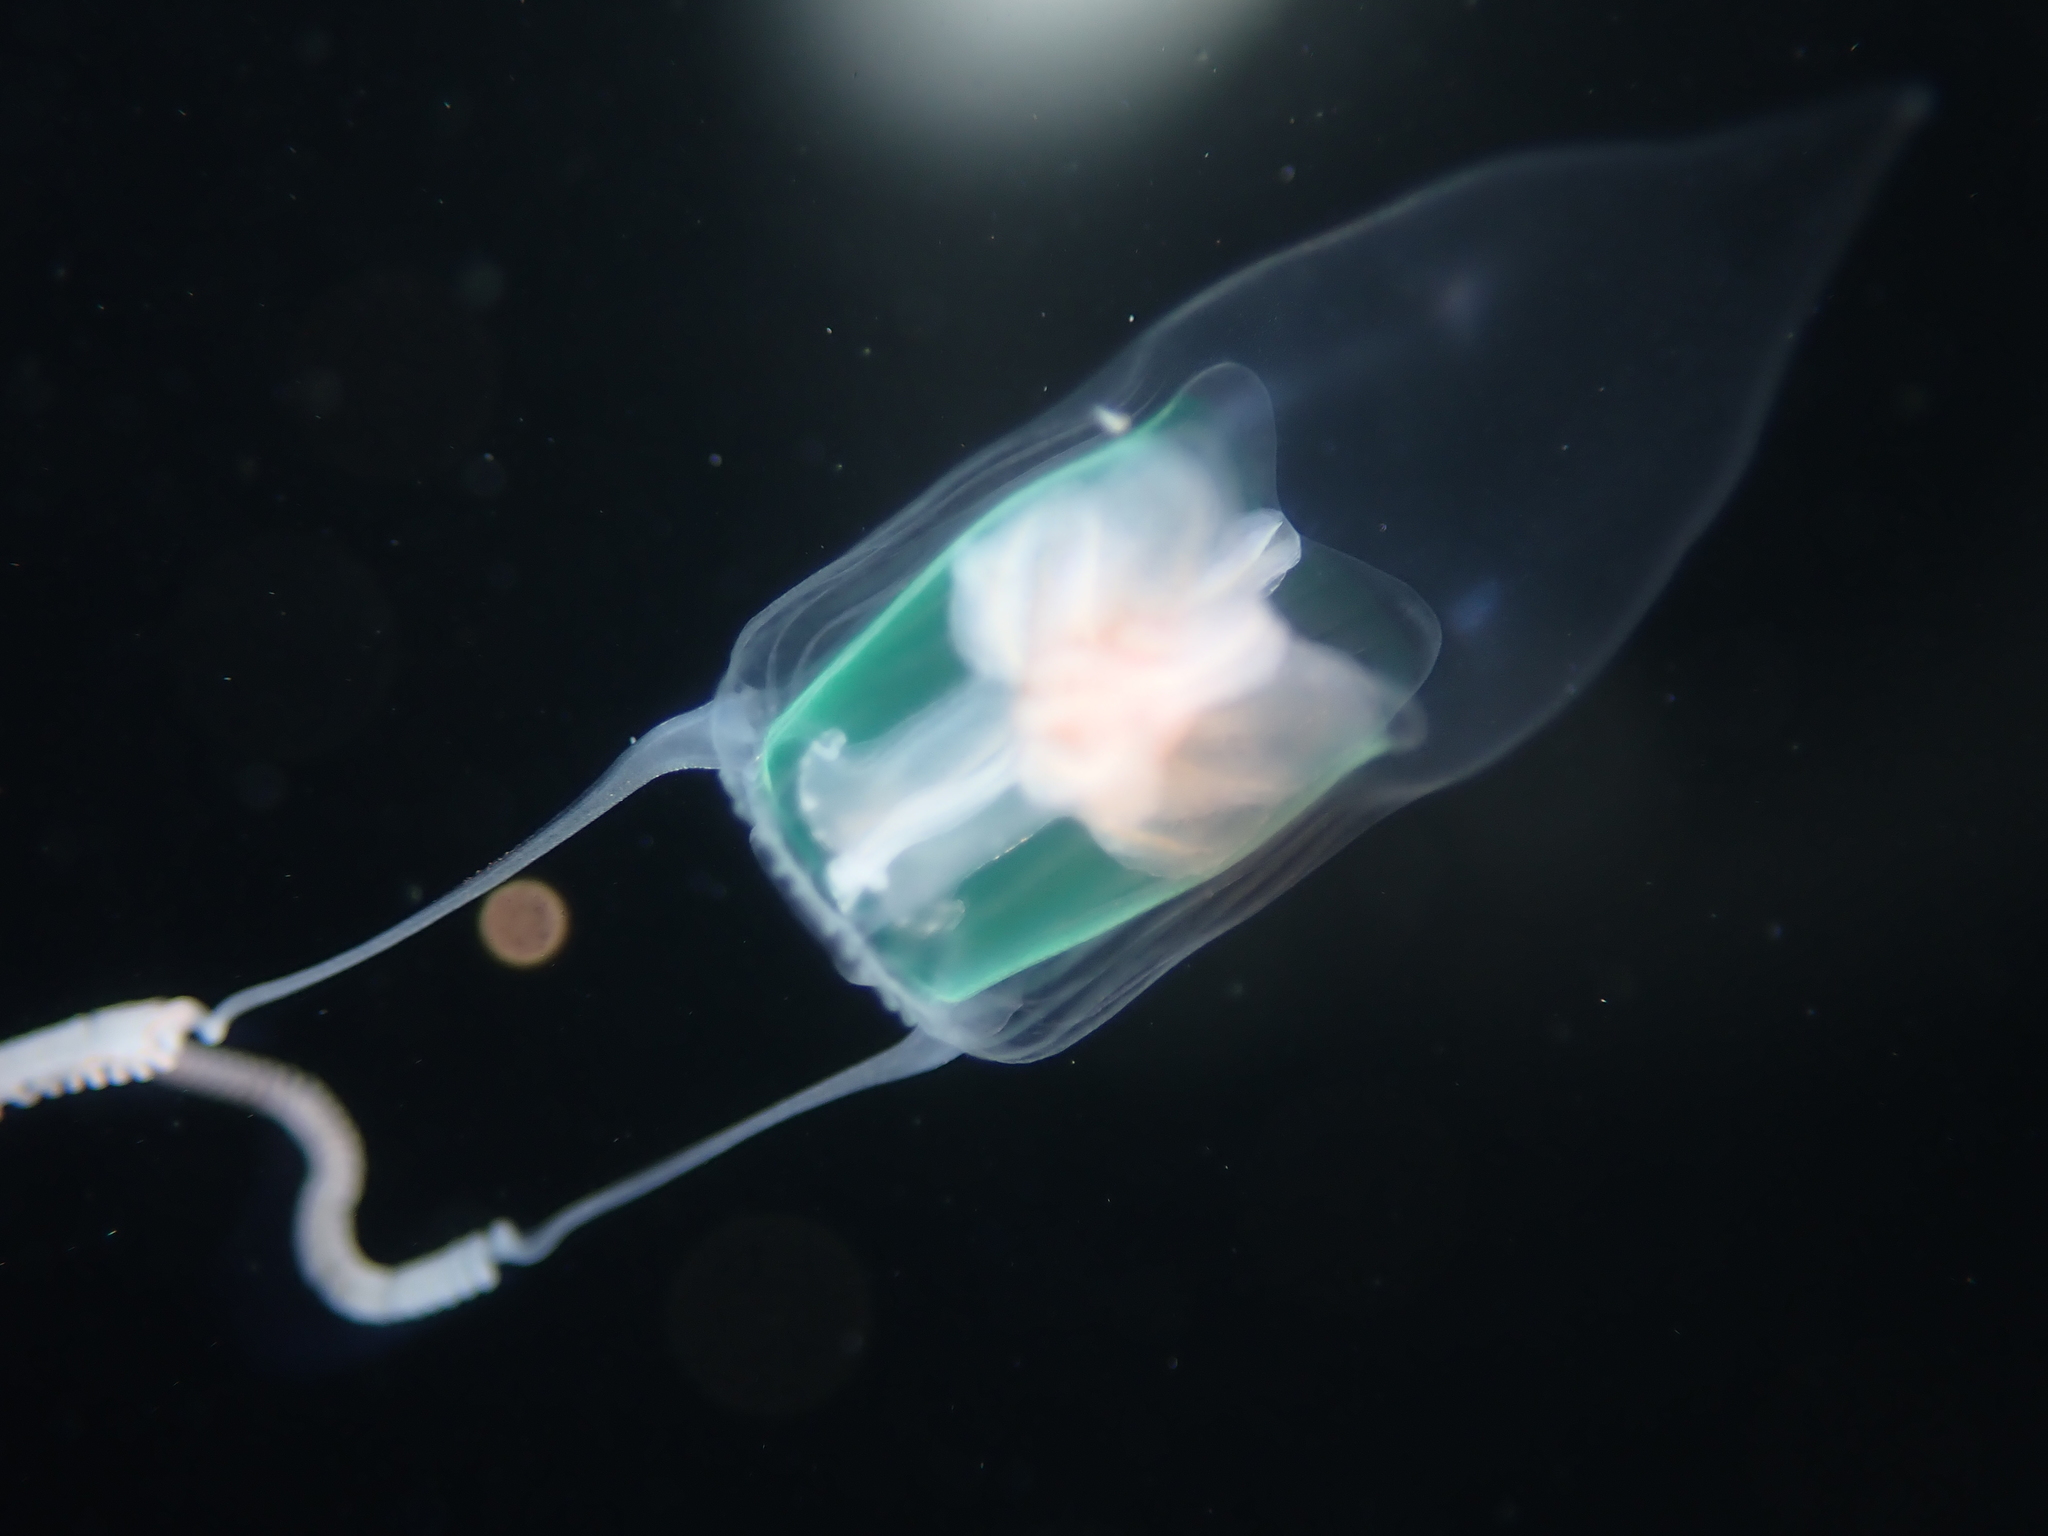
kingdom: Animalia
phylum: Cnidaria
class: Hydrozoa
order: Anthoathecata
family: Pandeidae
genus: Amphinema
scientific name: Amphinema rugosum
